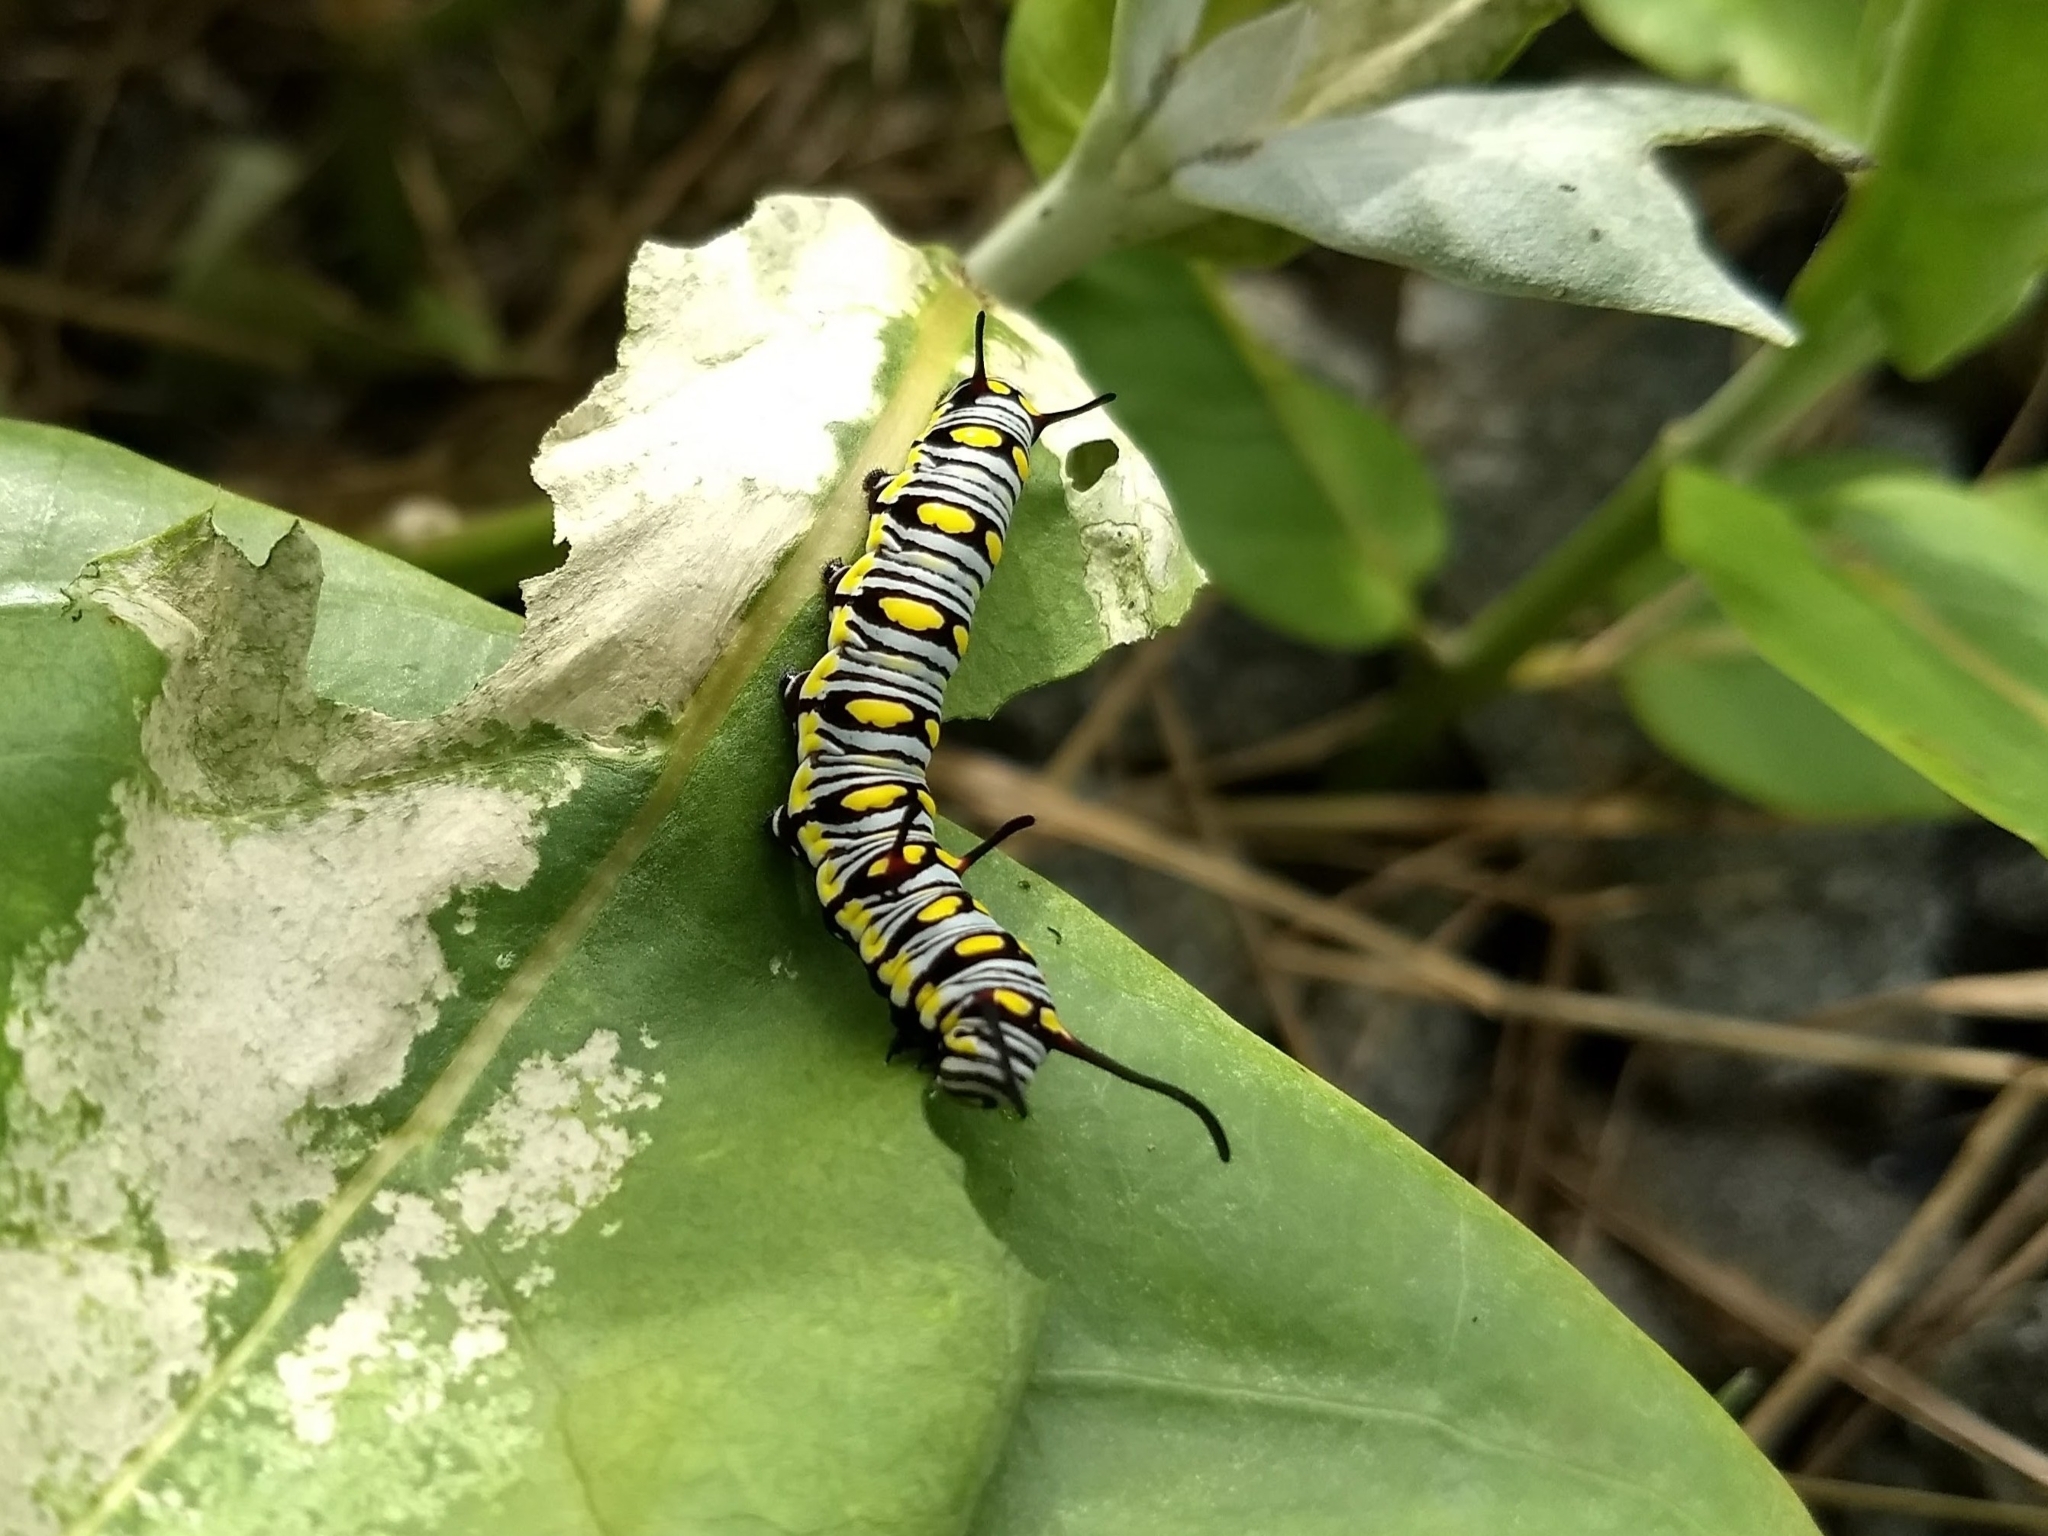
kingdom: Animalia
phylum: Arthropoda
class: Insecta
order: Lepidoptera
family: Nymphalidae
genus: Danaus
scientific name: Danaus chrysippus
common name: Plain tiger
